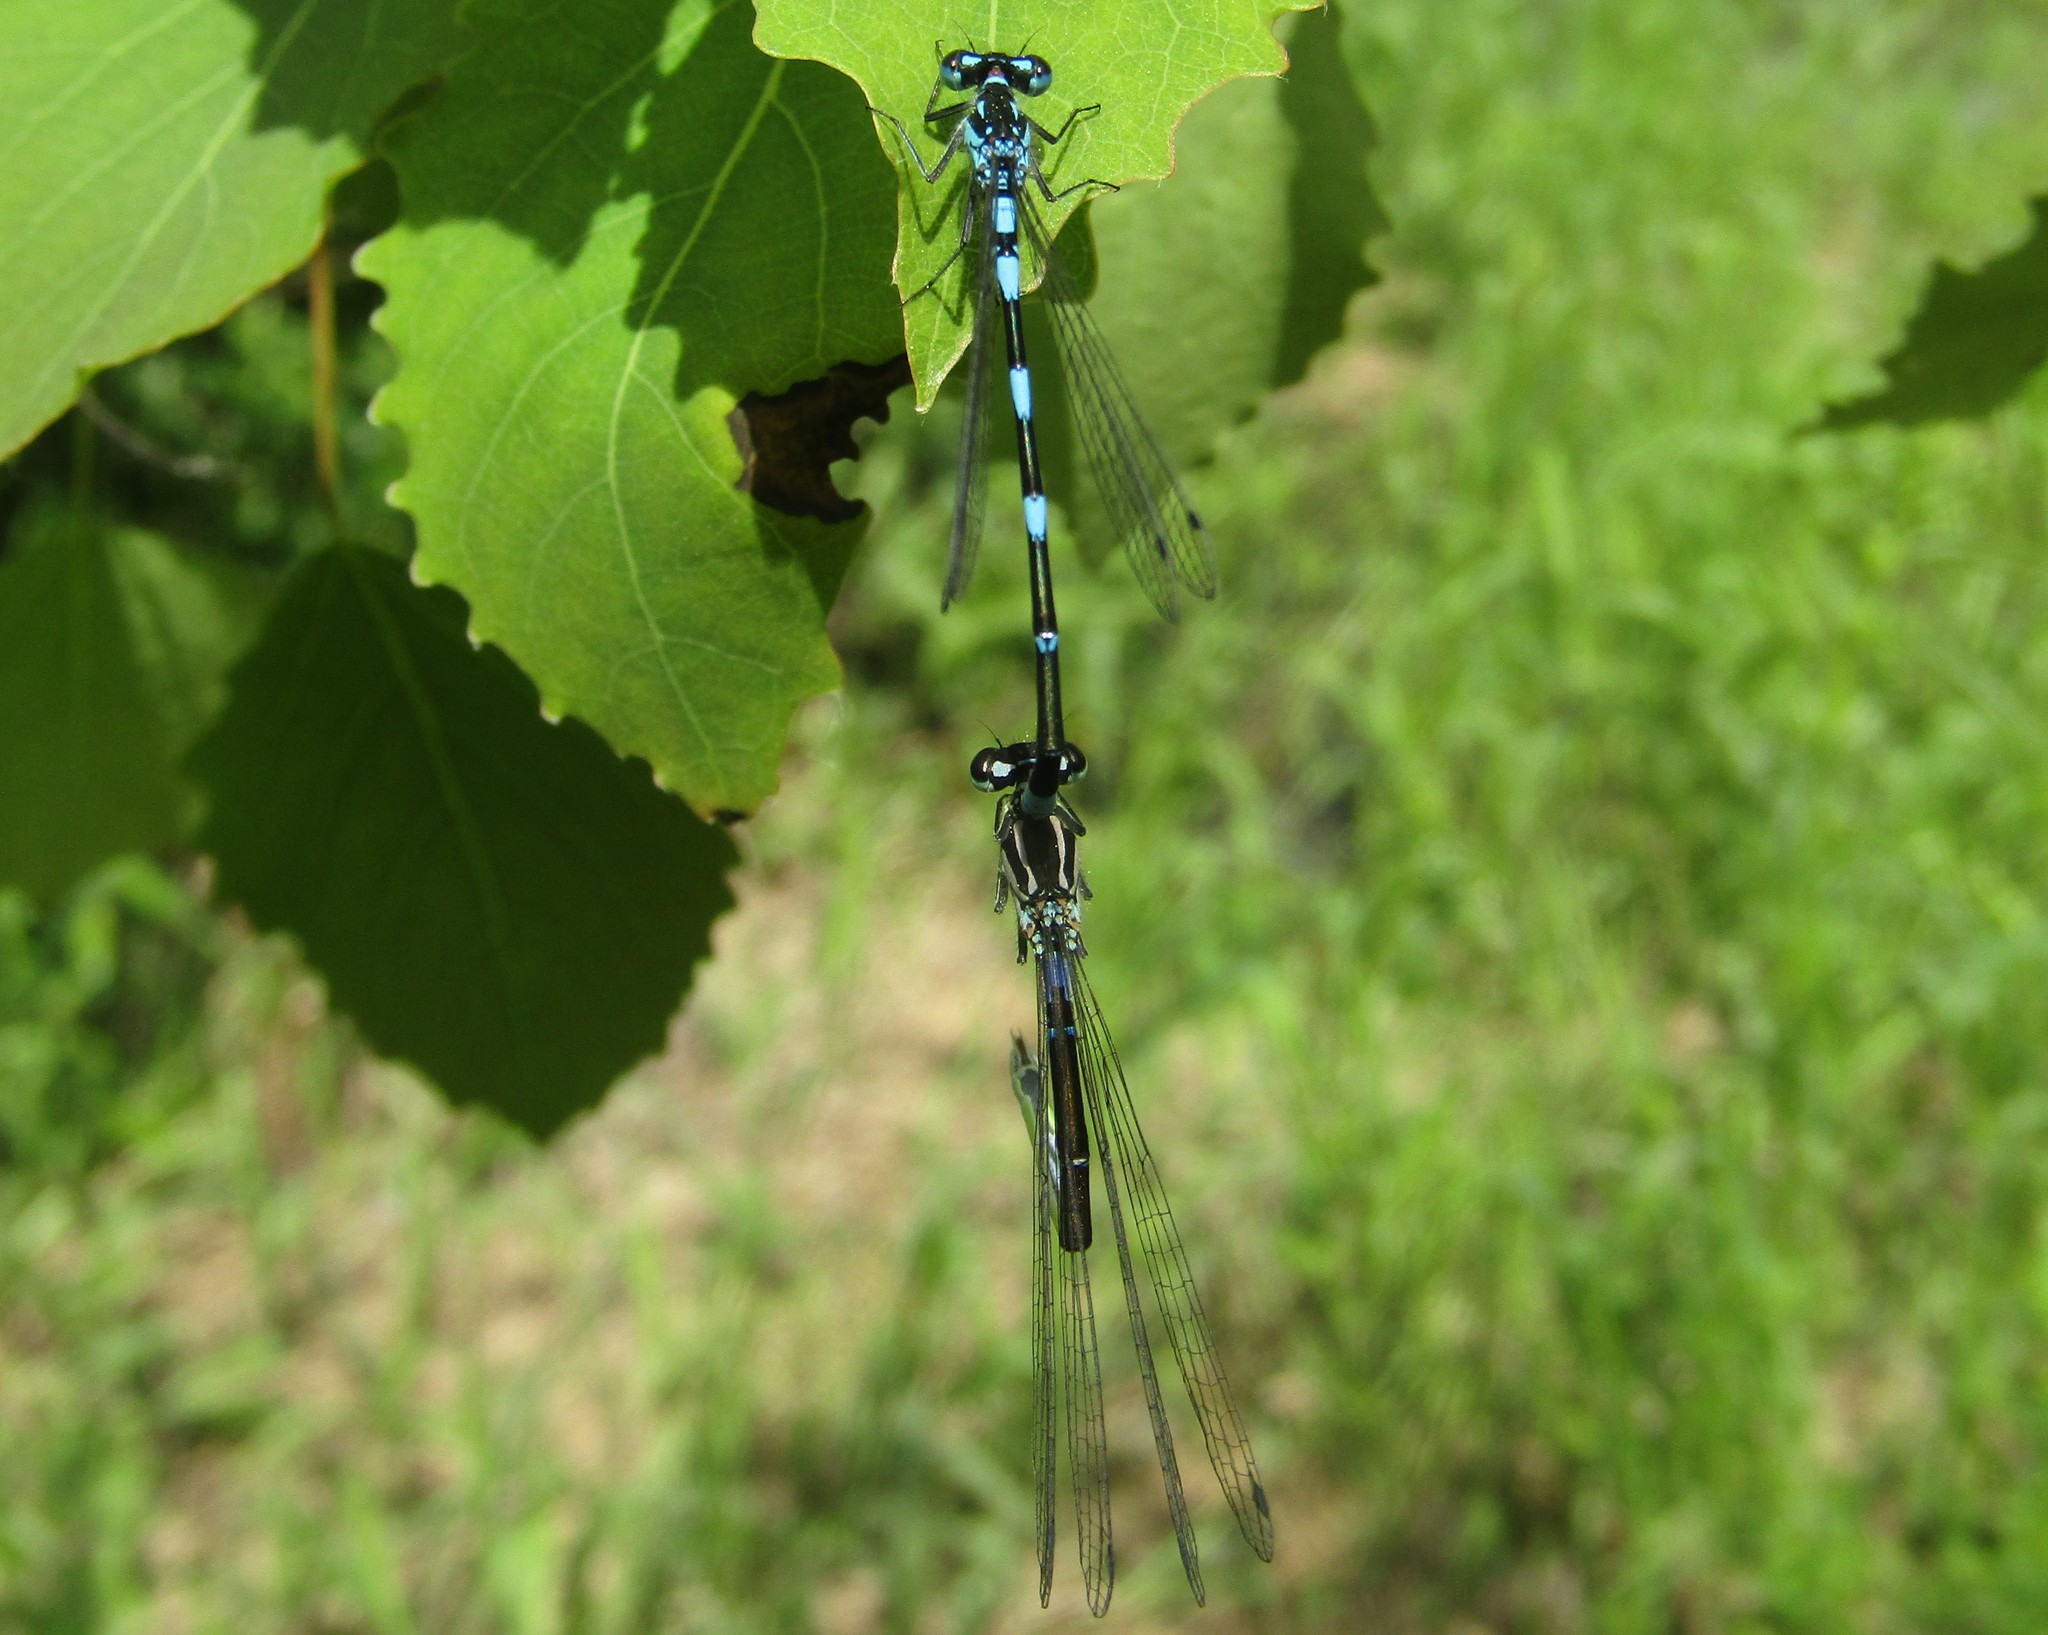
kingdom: Animalia
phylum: Arthropoda
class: Insecta
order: Odonata
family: Coenagrionidae
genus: Coenagrion
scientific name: Coenagrion pulchellum
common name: Variable bluet
